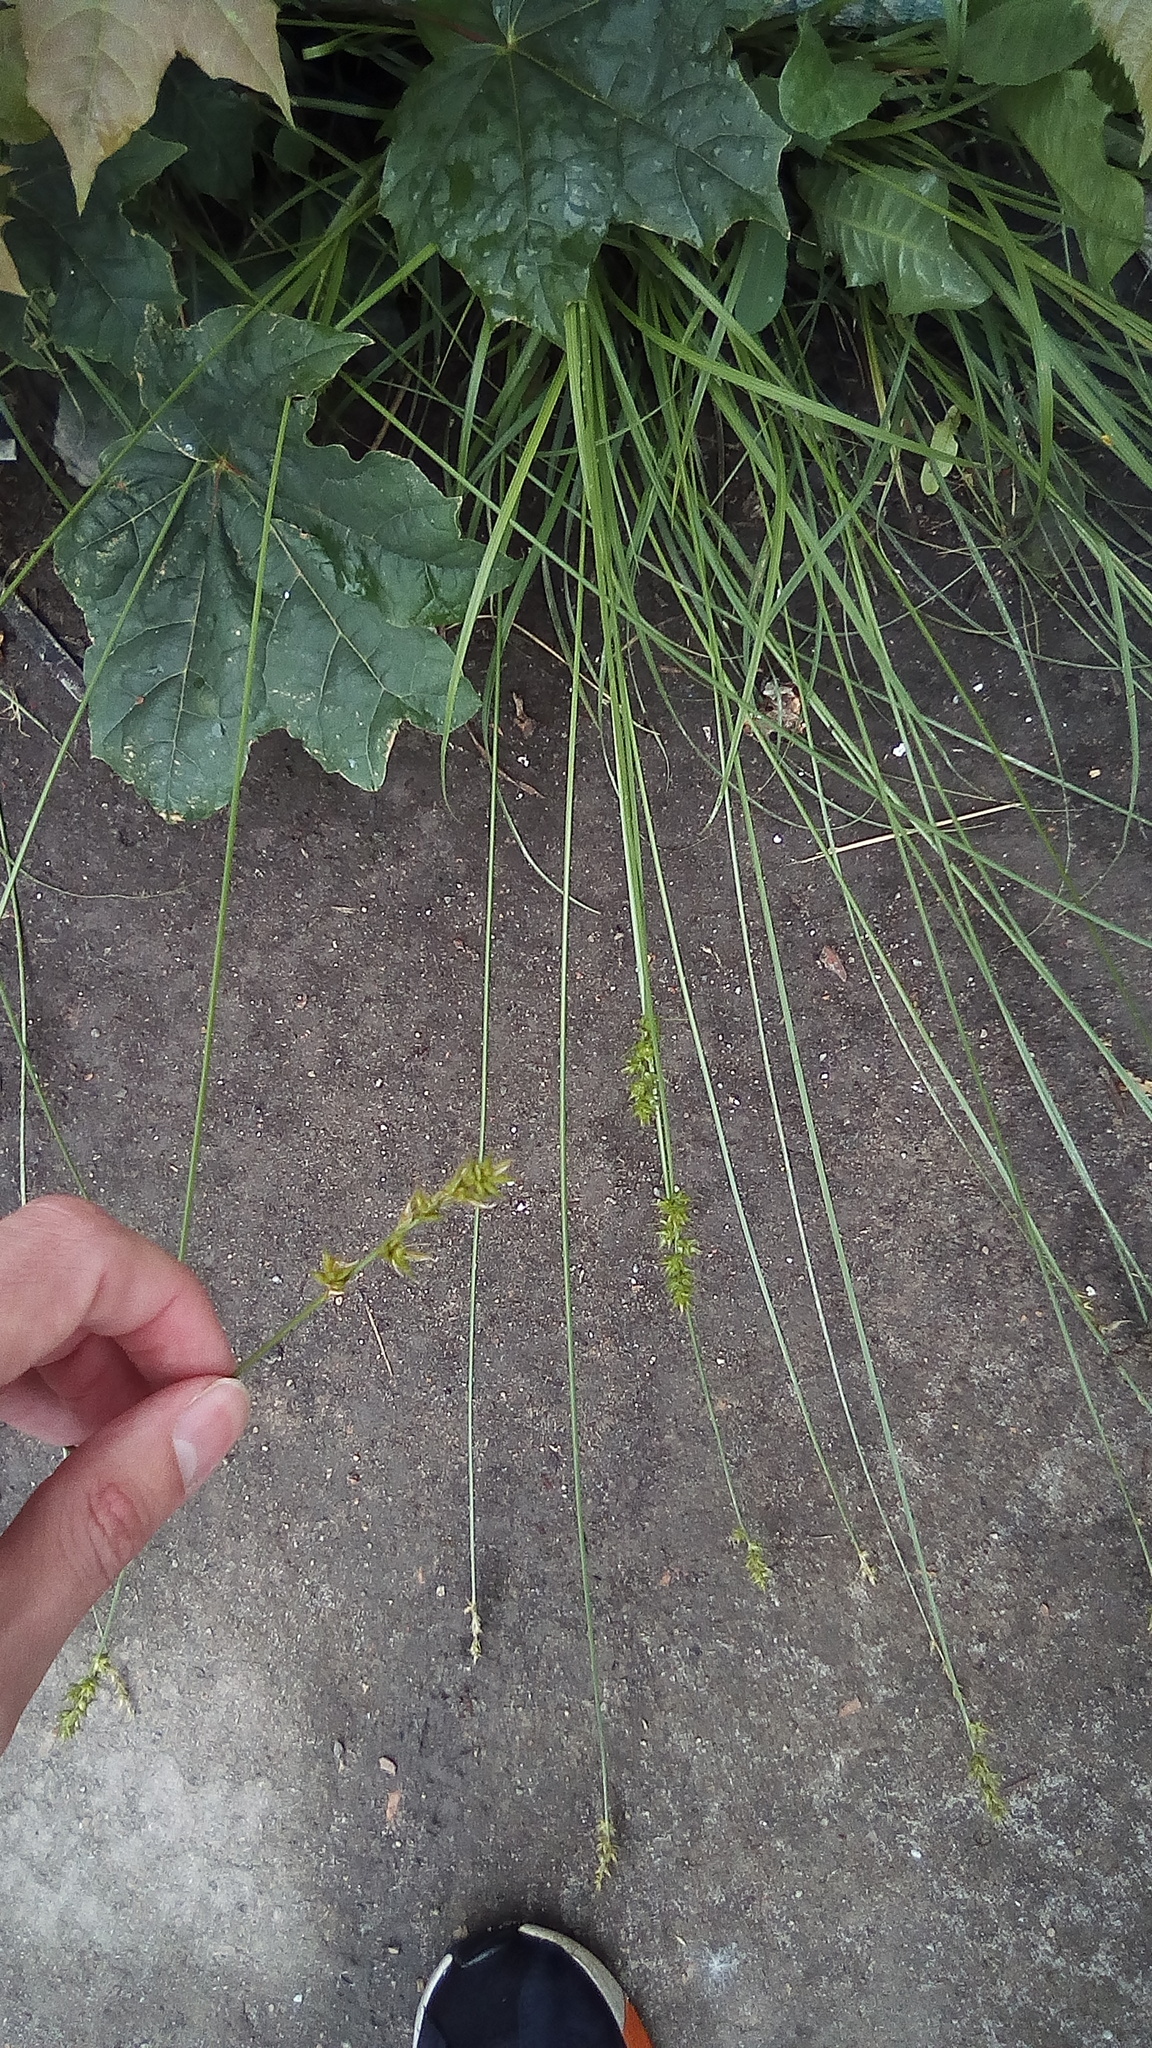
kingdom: Plantae
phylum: Tracheophyta
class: Liliopsida
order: Poales
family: Cyperaceae
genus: Carex
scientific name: Carex spicata
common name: Spiked sedge
